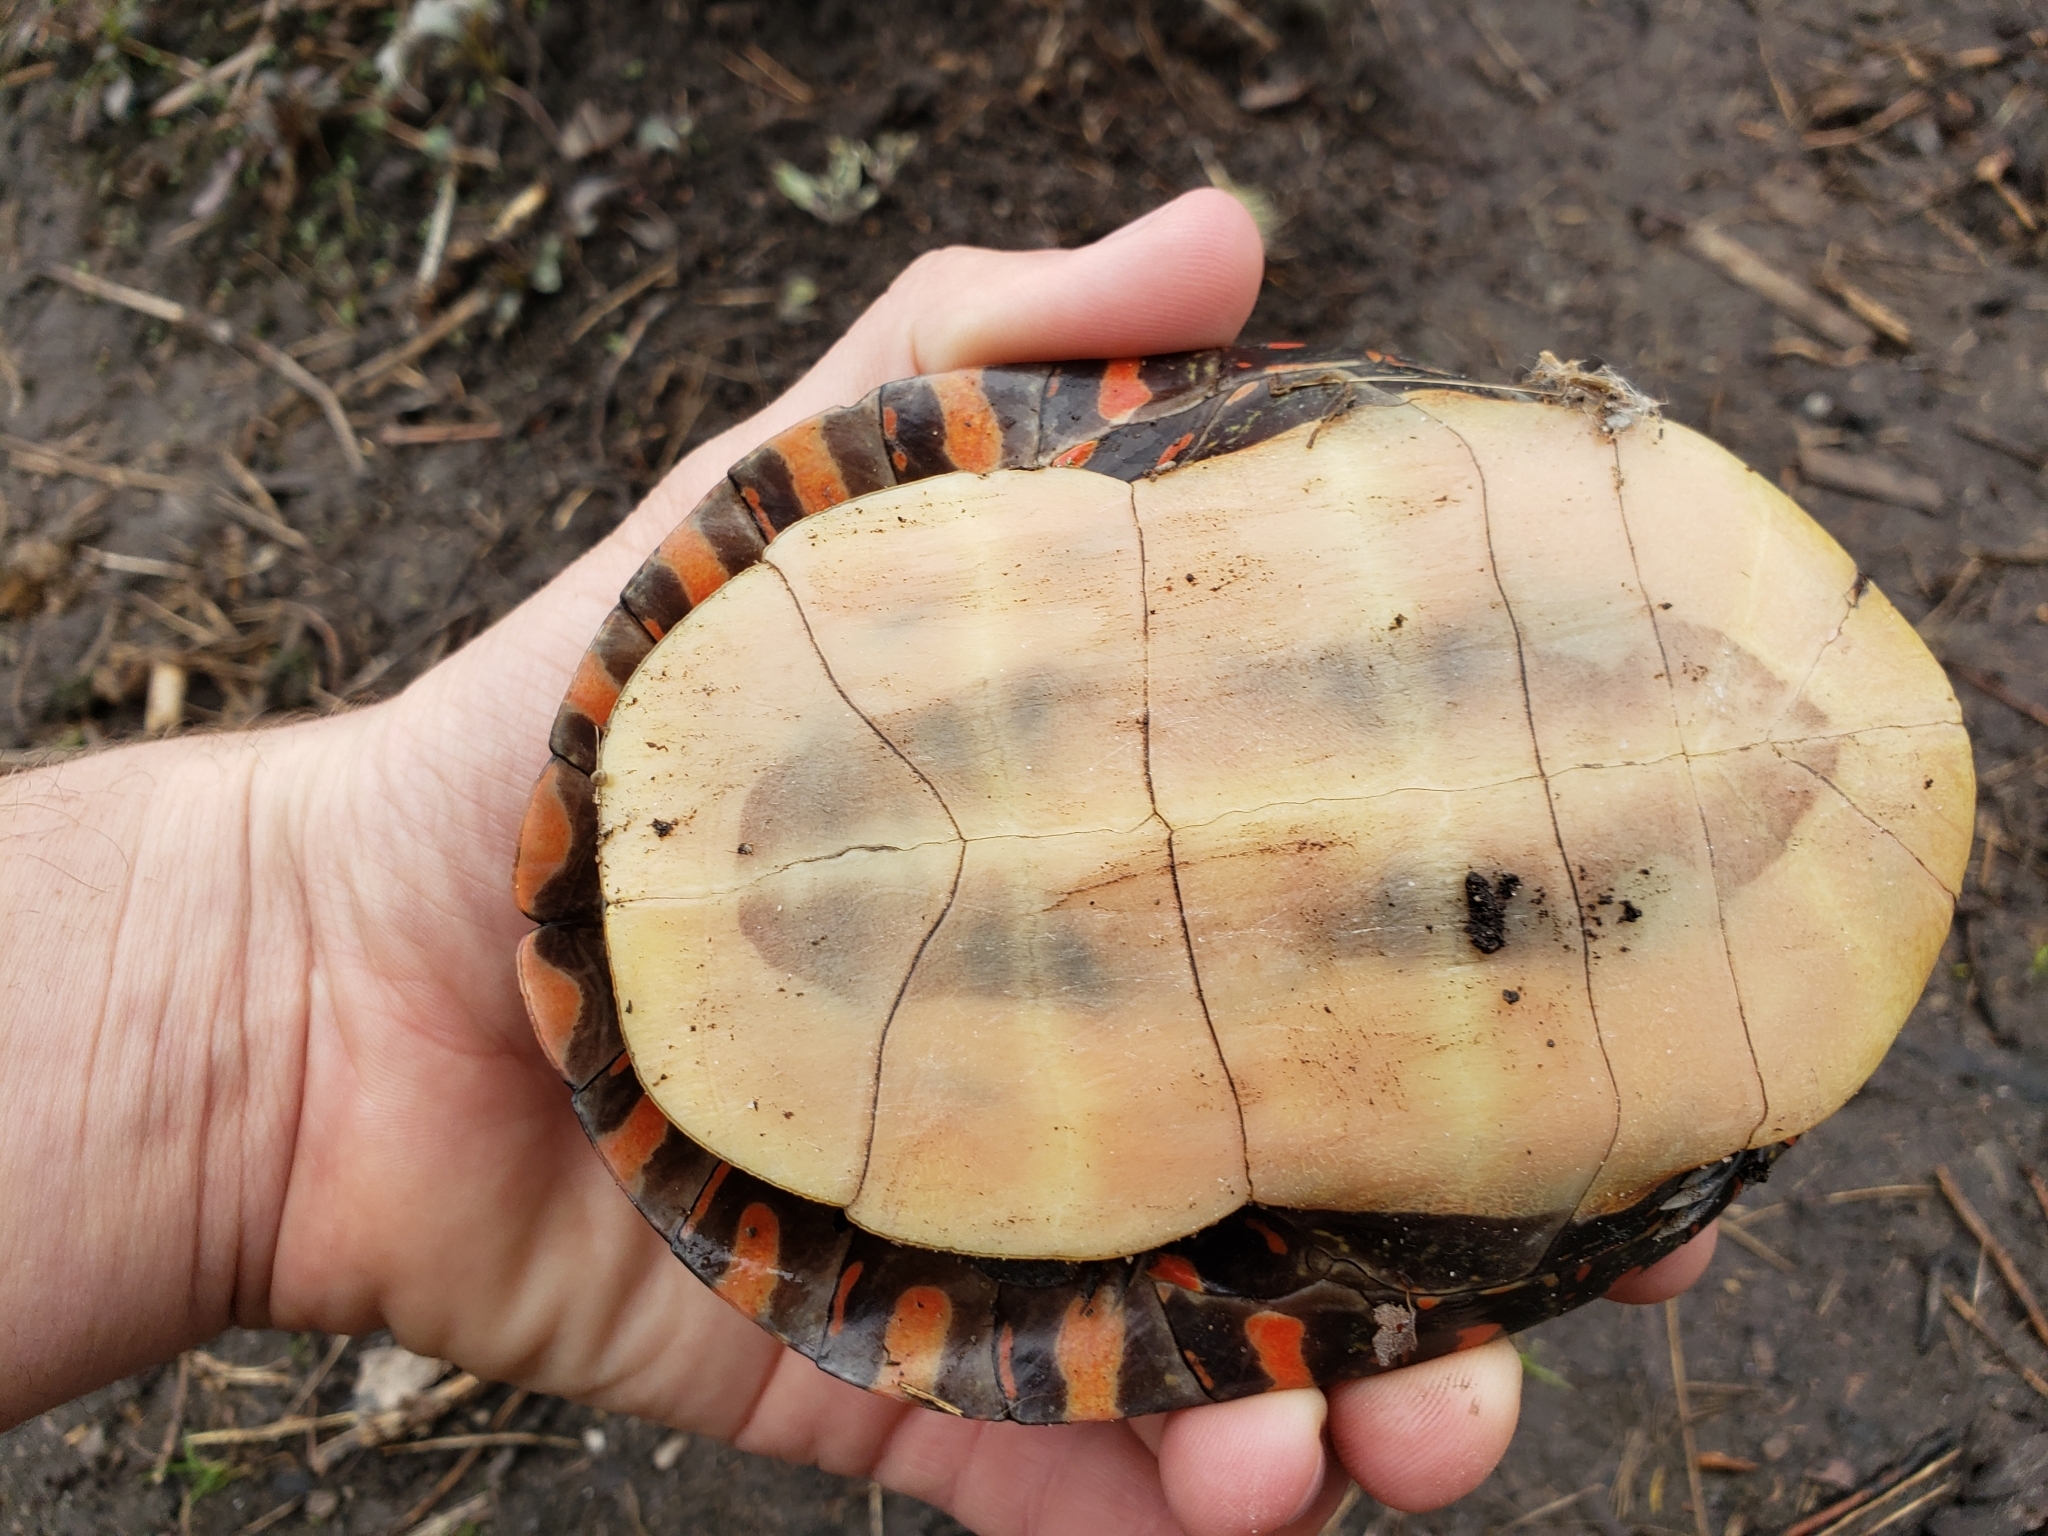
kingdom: Animalia
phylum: Chordata
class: Testudines
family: Emydidae
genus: Chrysemys
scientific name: Chrysemys picta
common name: Painted turtle
